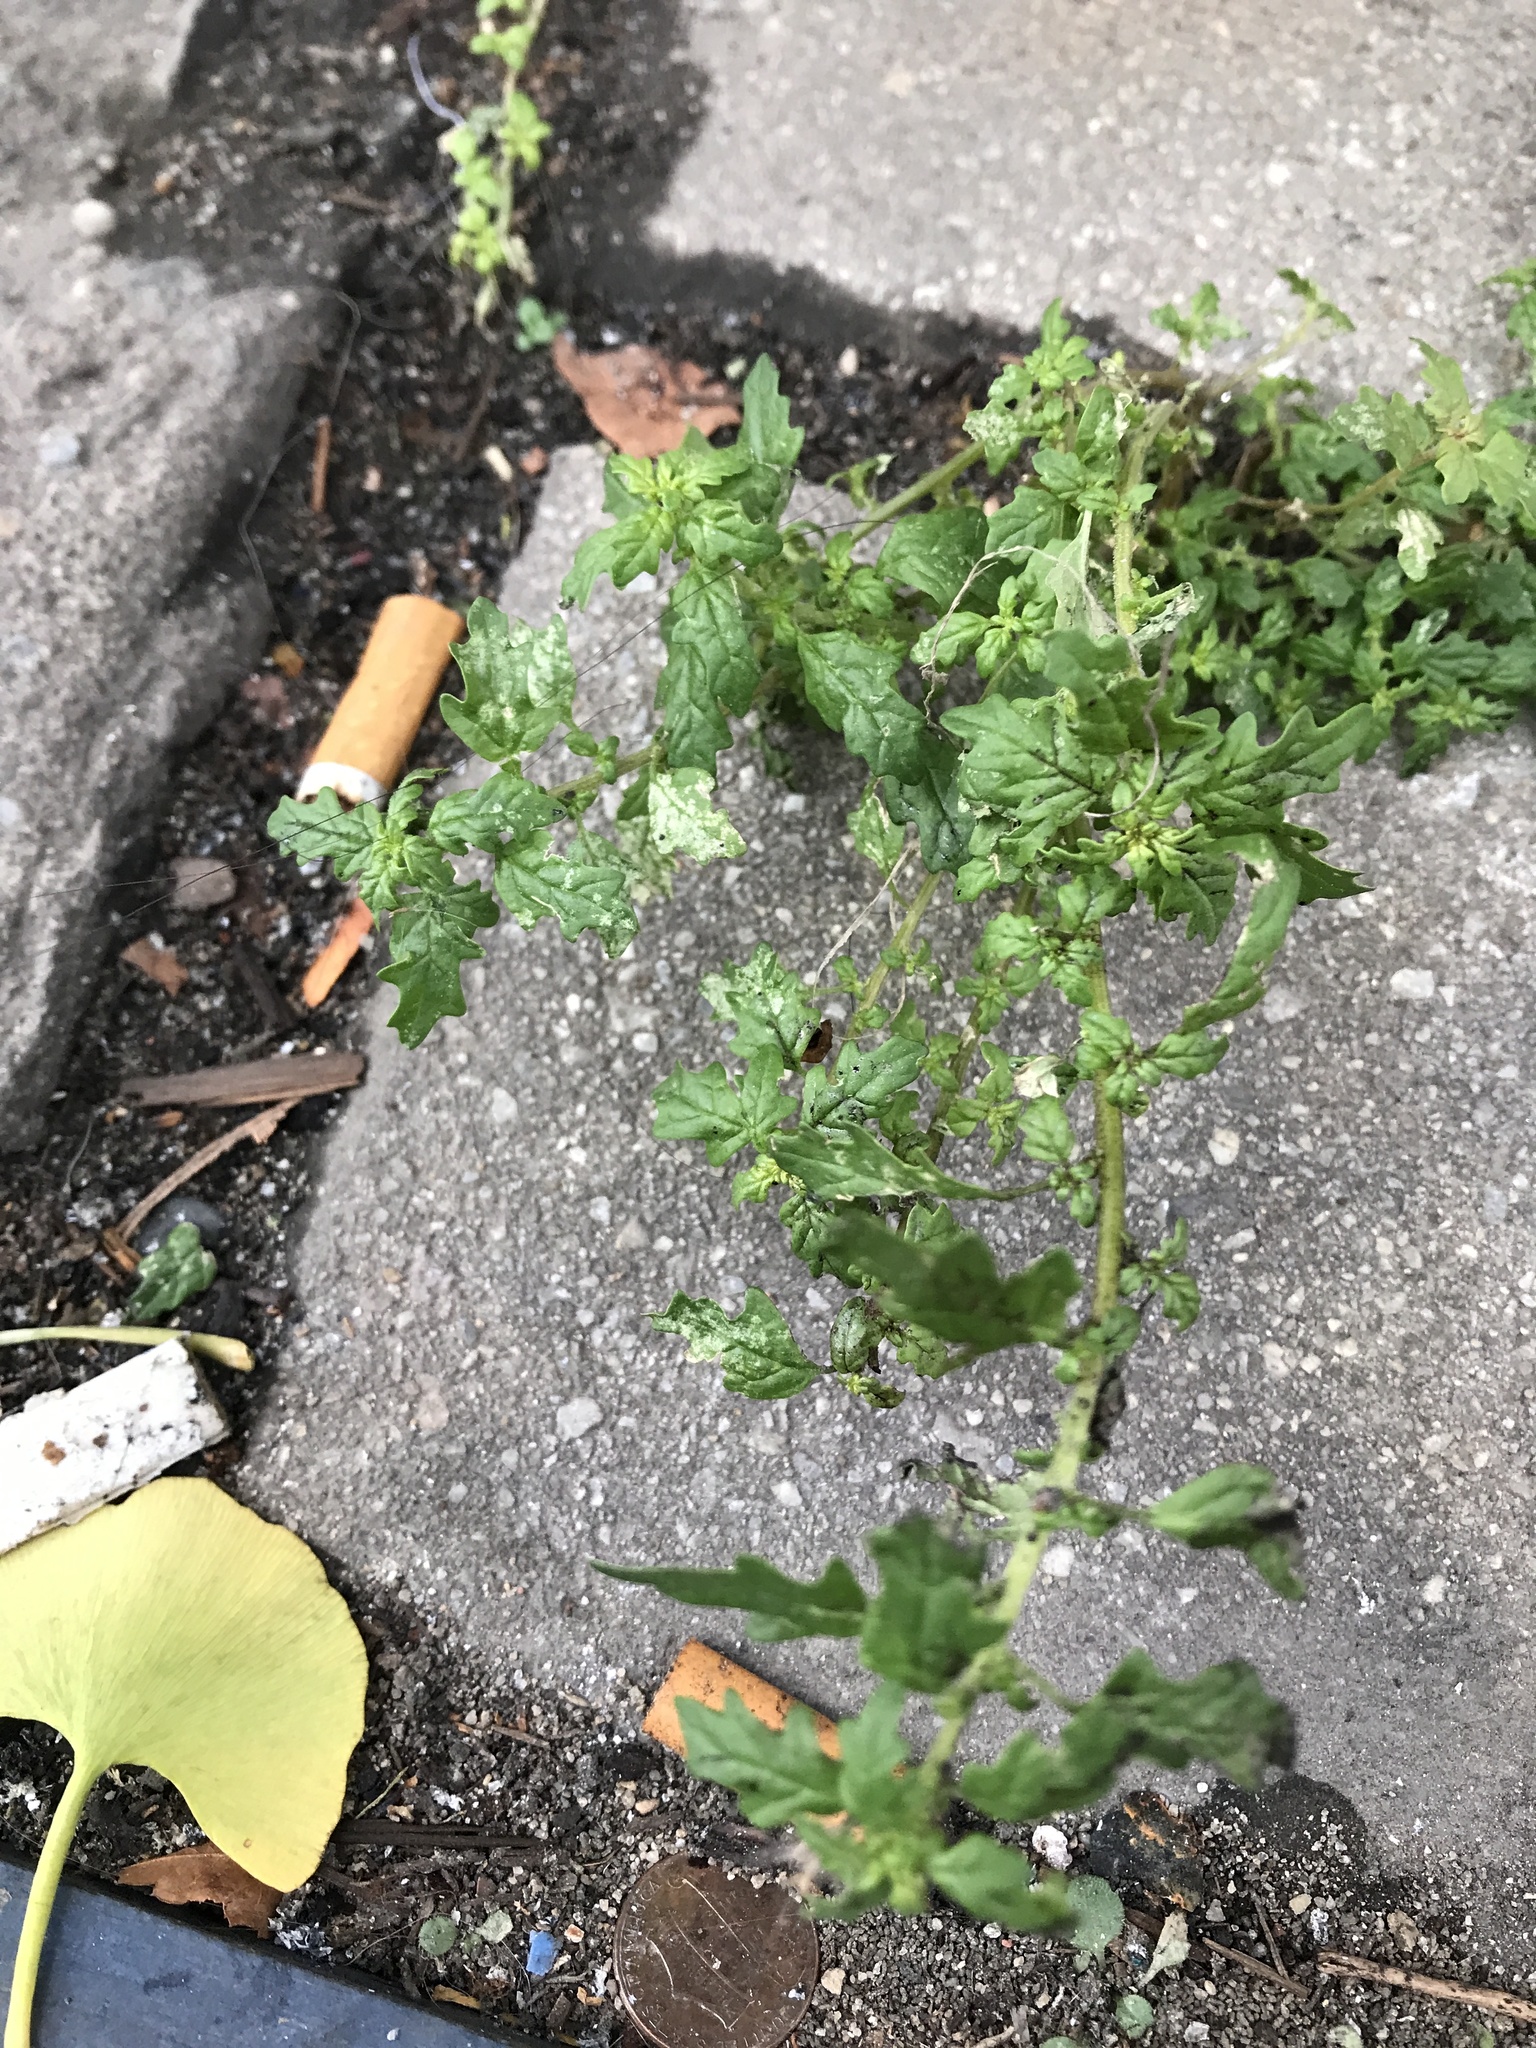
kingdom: Plantae
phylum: Tracheophyta
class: Magnoliopsida
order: Caryophyllales
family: Amaranthaceae
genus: Dysphania
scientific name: Dysphania pumilio
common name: Clammy goosefoot
